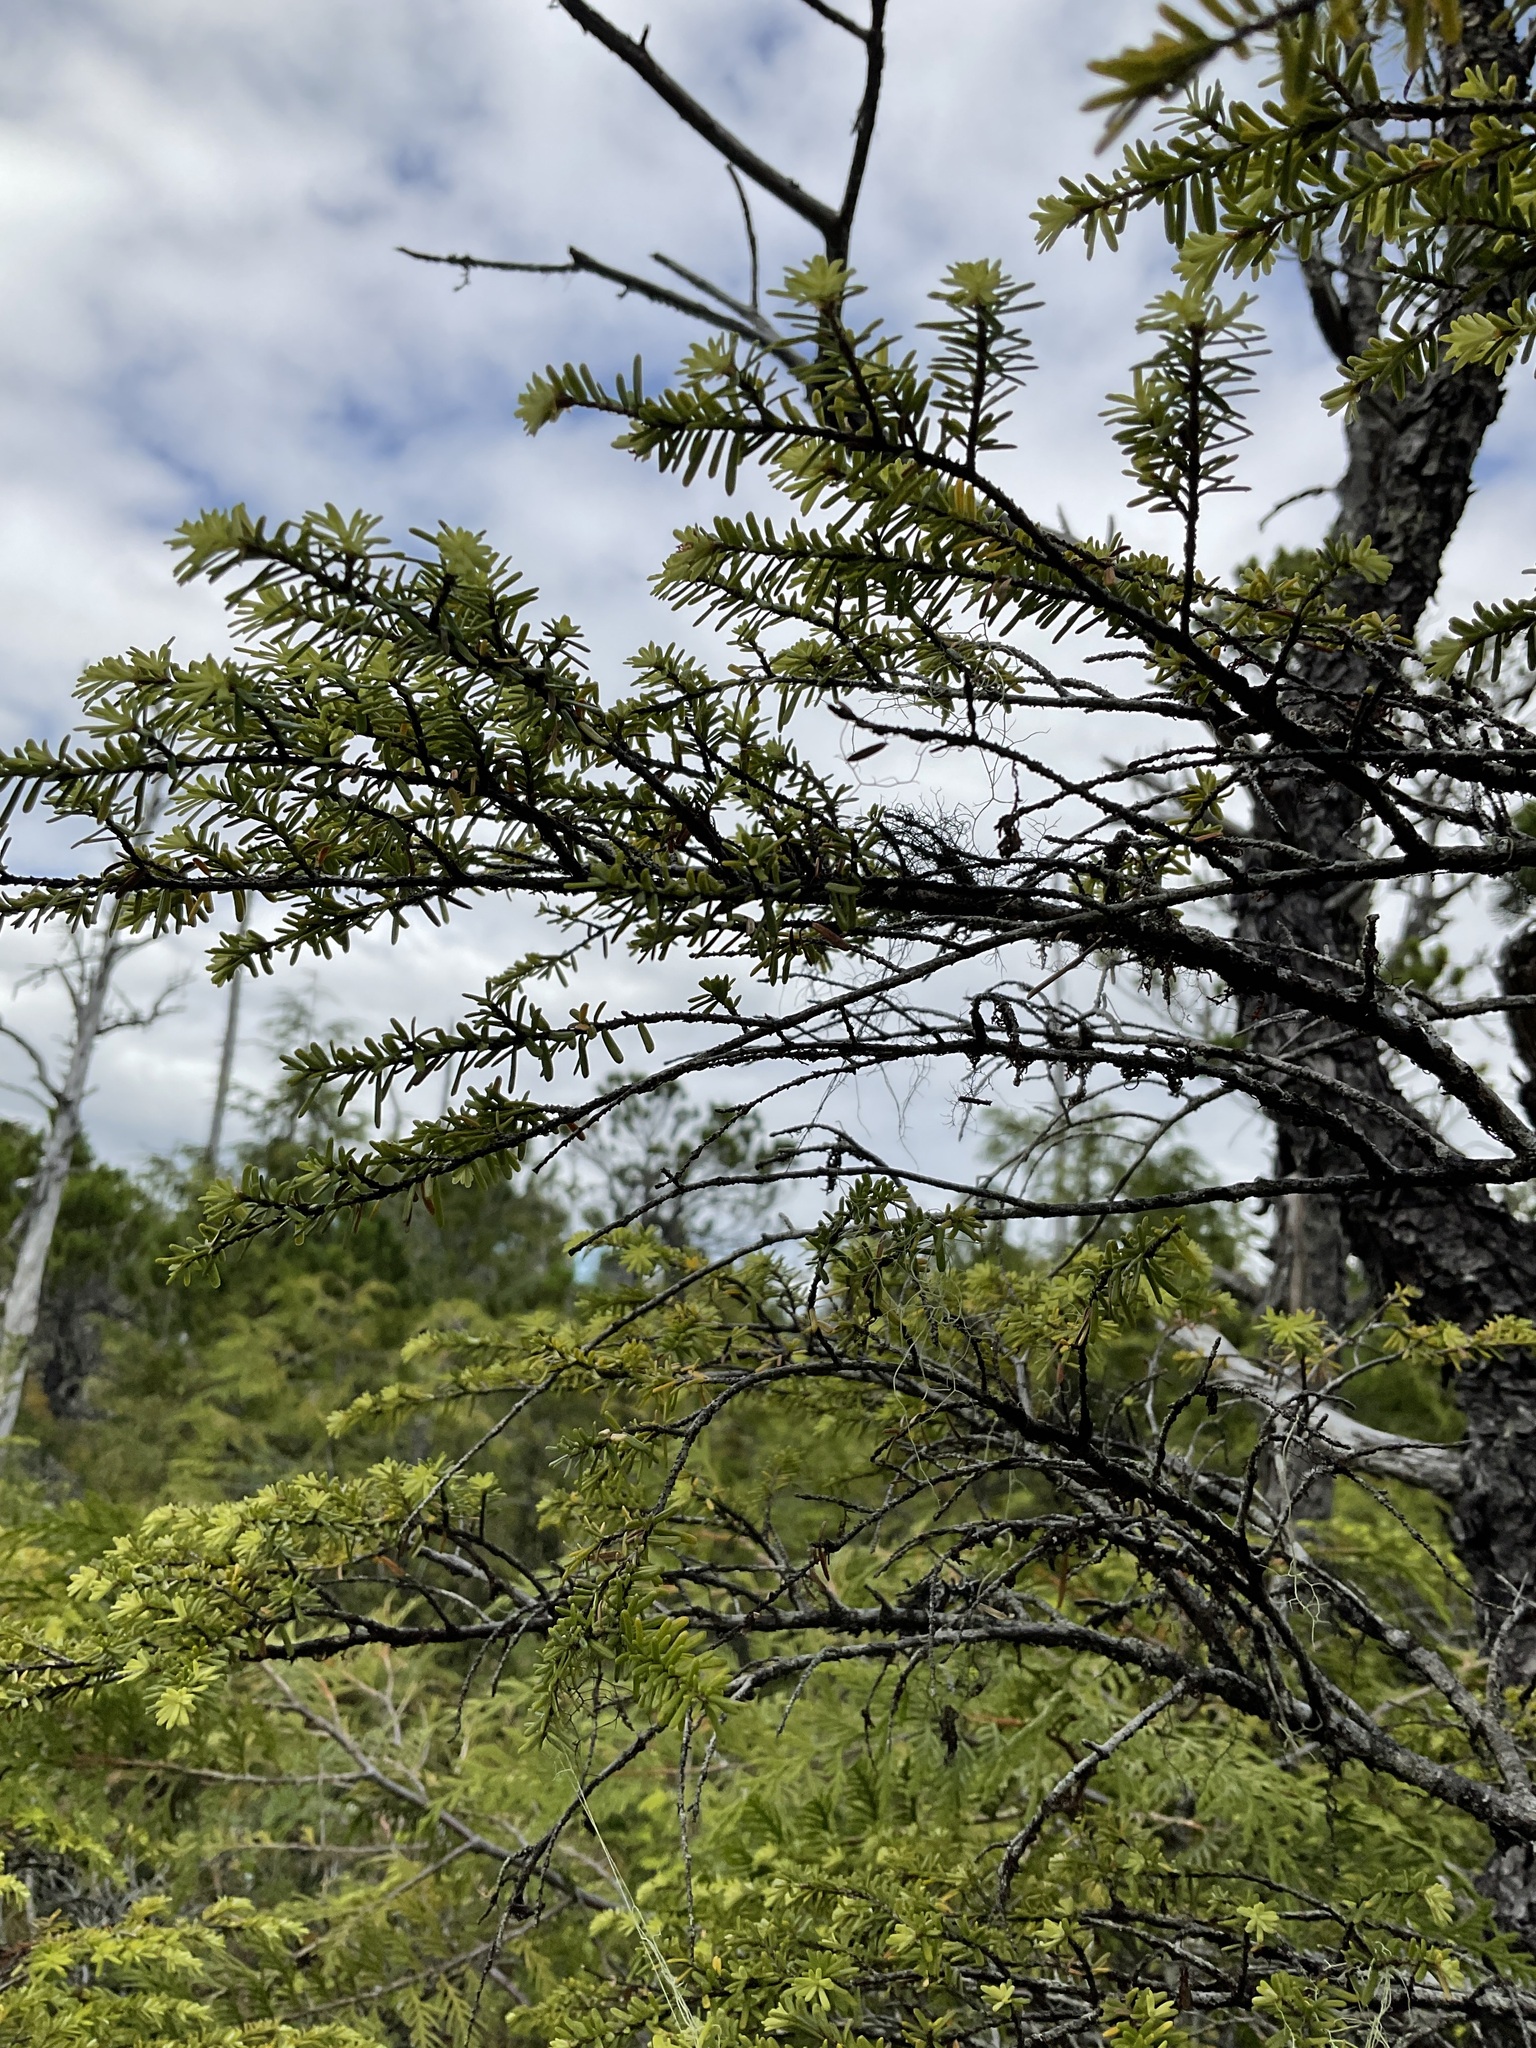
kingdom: Plantae
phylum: Tracheophyta
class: Pinopsida
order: Pinales
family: Pinaceae
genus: Tsuga
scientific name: Tsuga heterophylla
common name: Western hemlock
